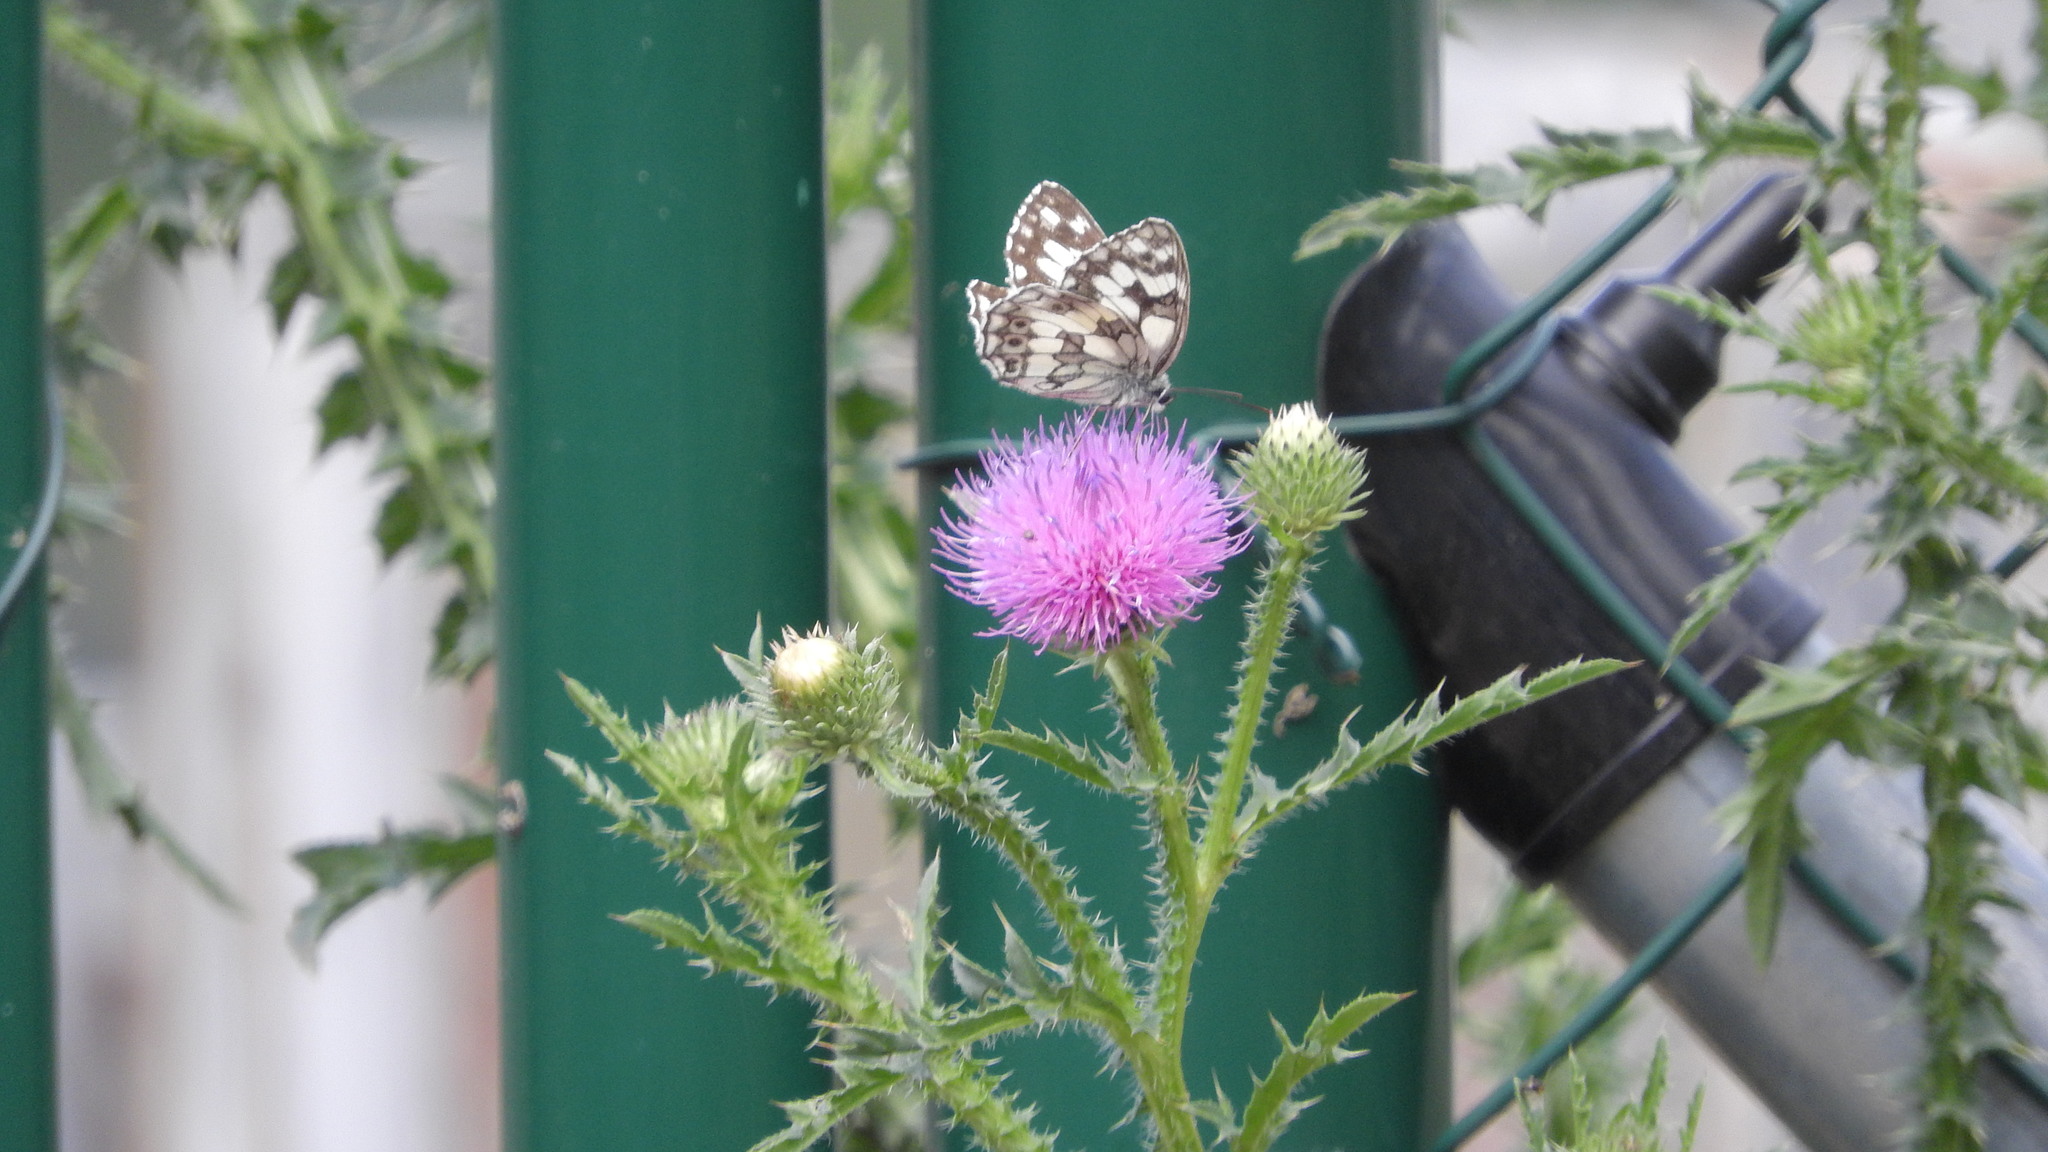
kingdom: Animalia
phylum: Arthropoda
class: Insecta
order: Lepidoptera
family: Nymphalidae
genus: Melanargia
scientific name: Melanargia galathea
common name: Marbled white
